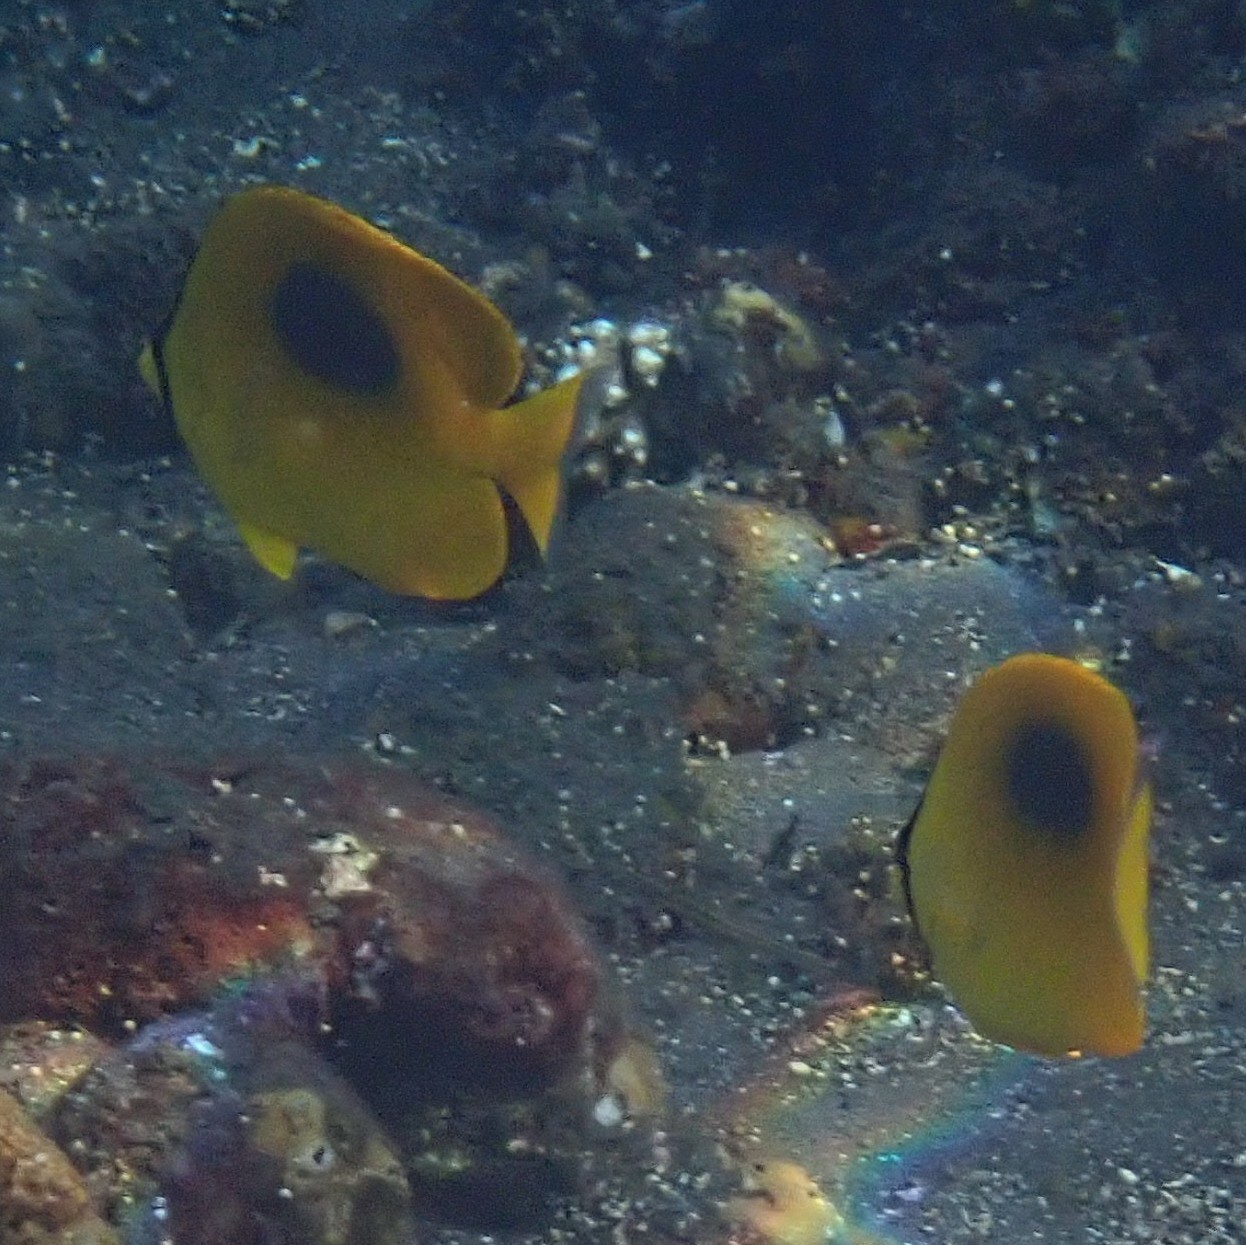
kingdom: Animalia
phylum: Chordata
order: Perciformes
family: Chaetodontidae
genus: Chaetodon
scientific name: Chaetodon speculum
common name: Mirror butterflyfish
